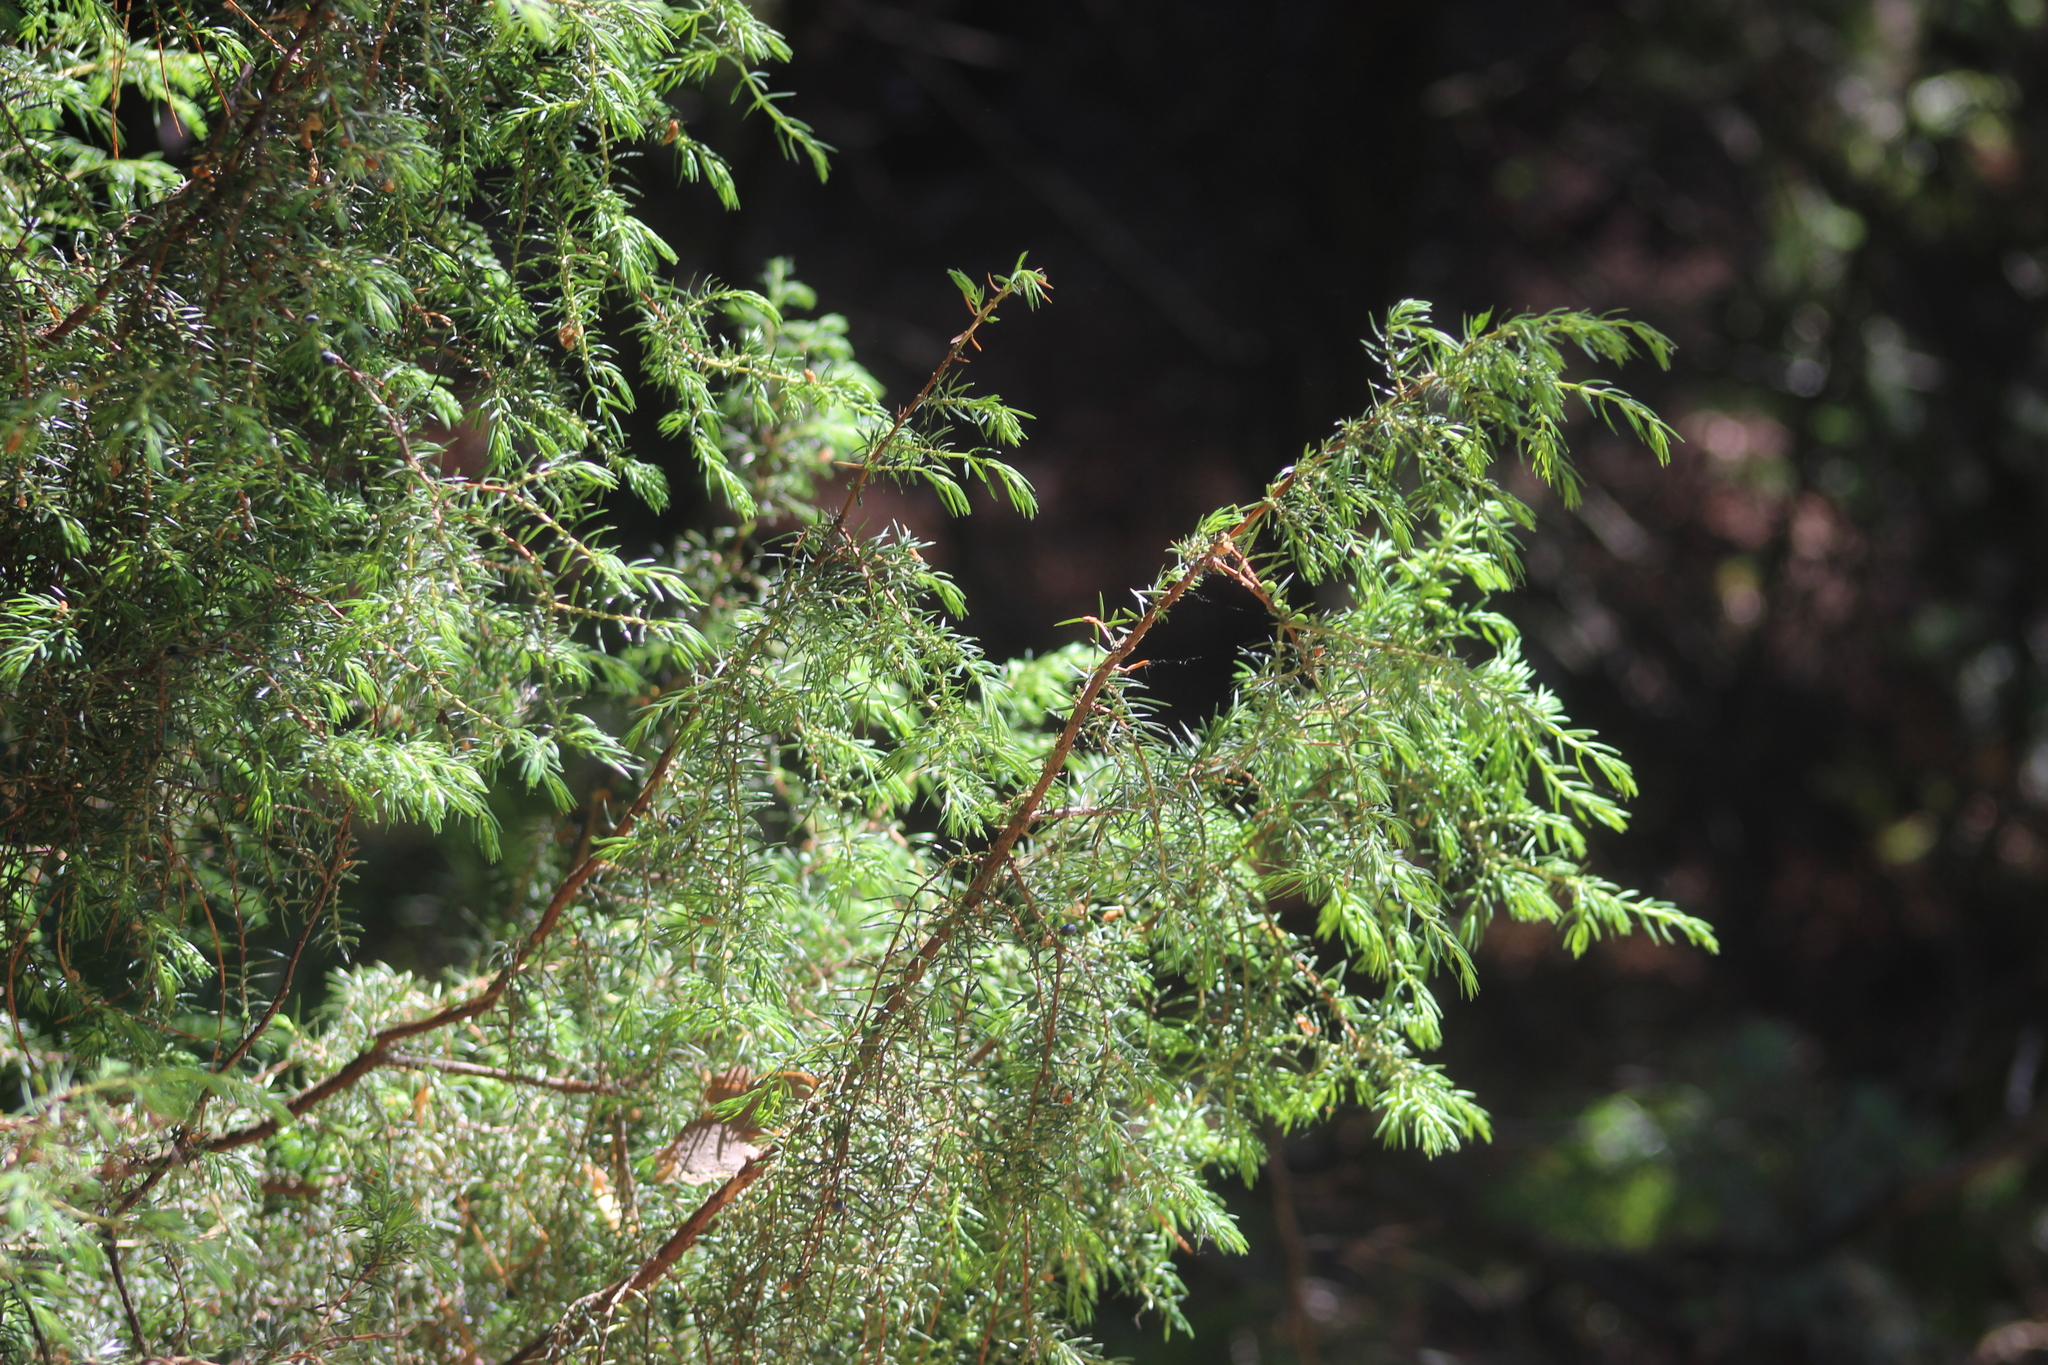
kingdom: Plantae
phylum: Tracheophyta
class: Pinopsida
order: Pinales
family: Cupressaceae
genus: Juniperus
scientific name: Juniperus communis
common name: Common juniper
